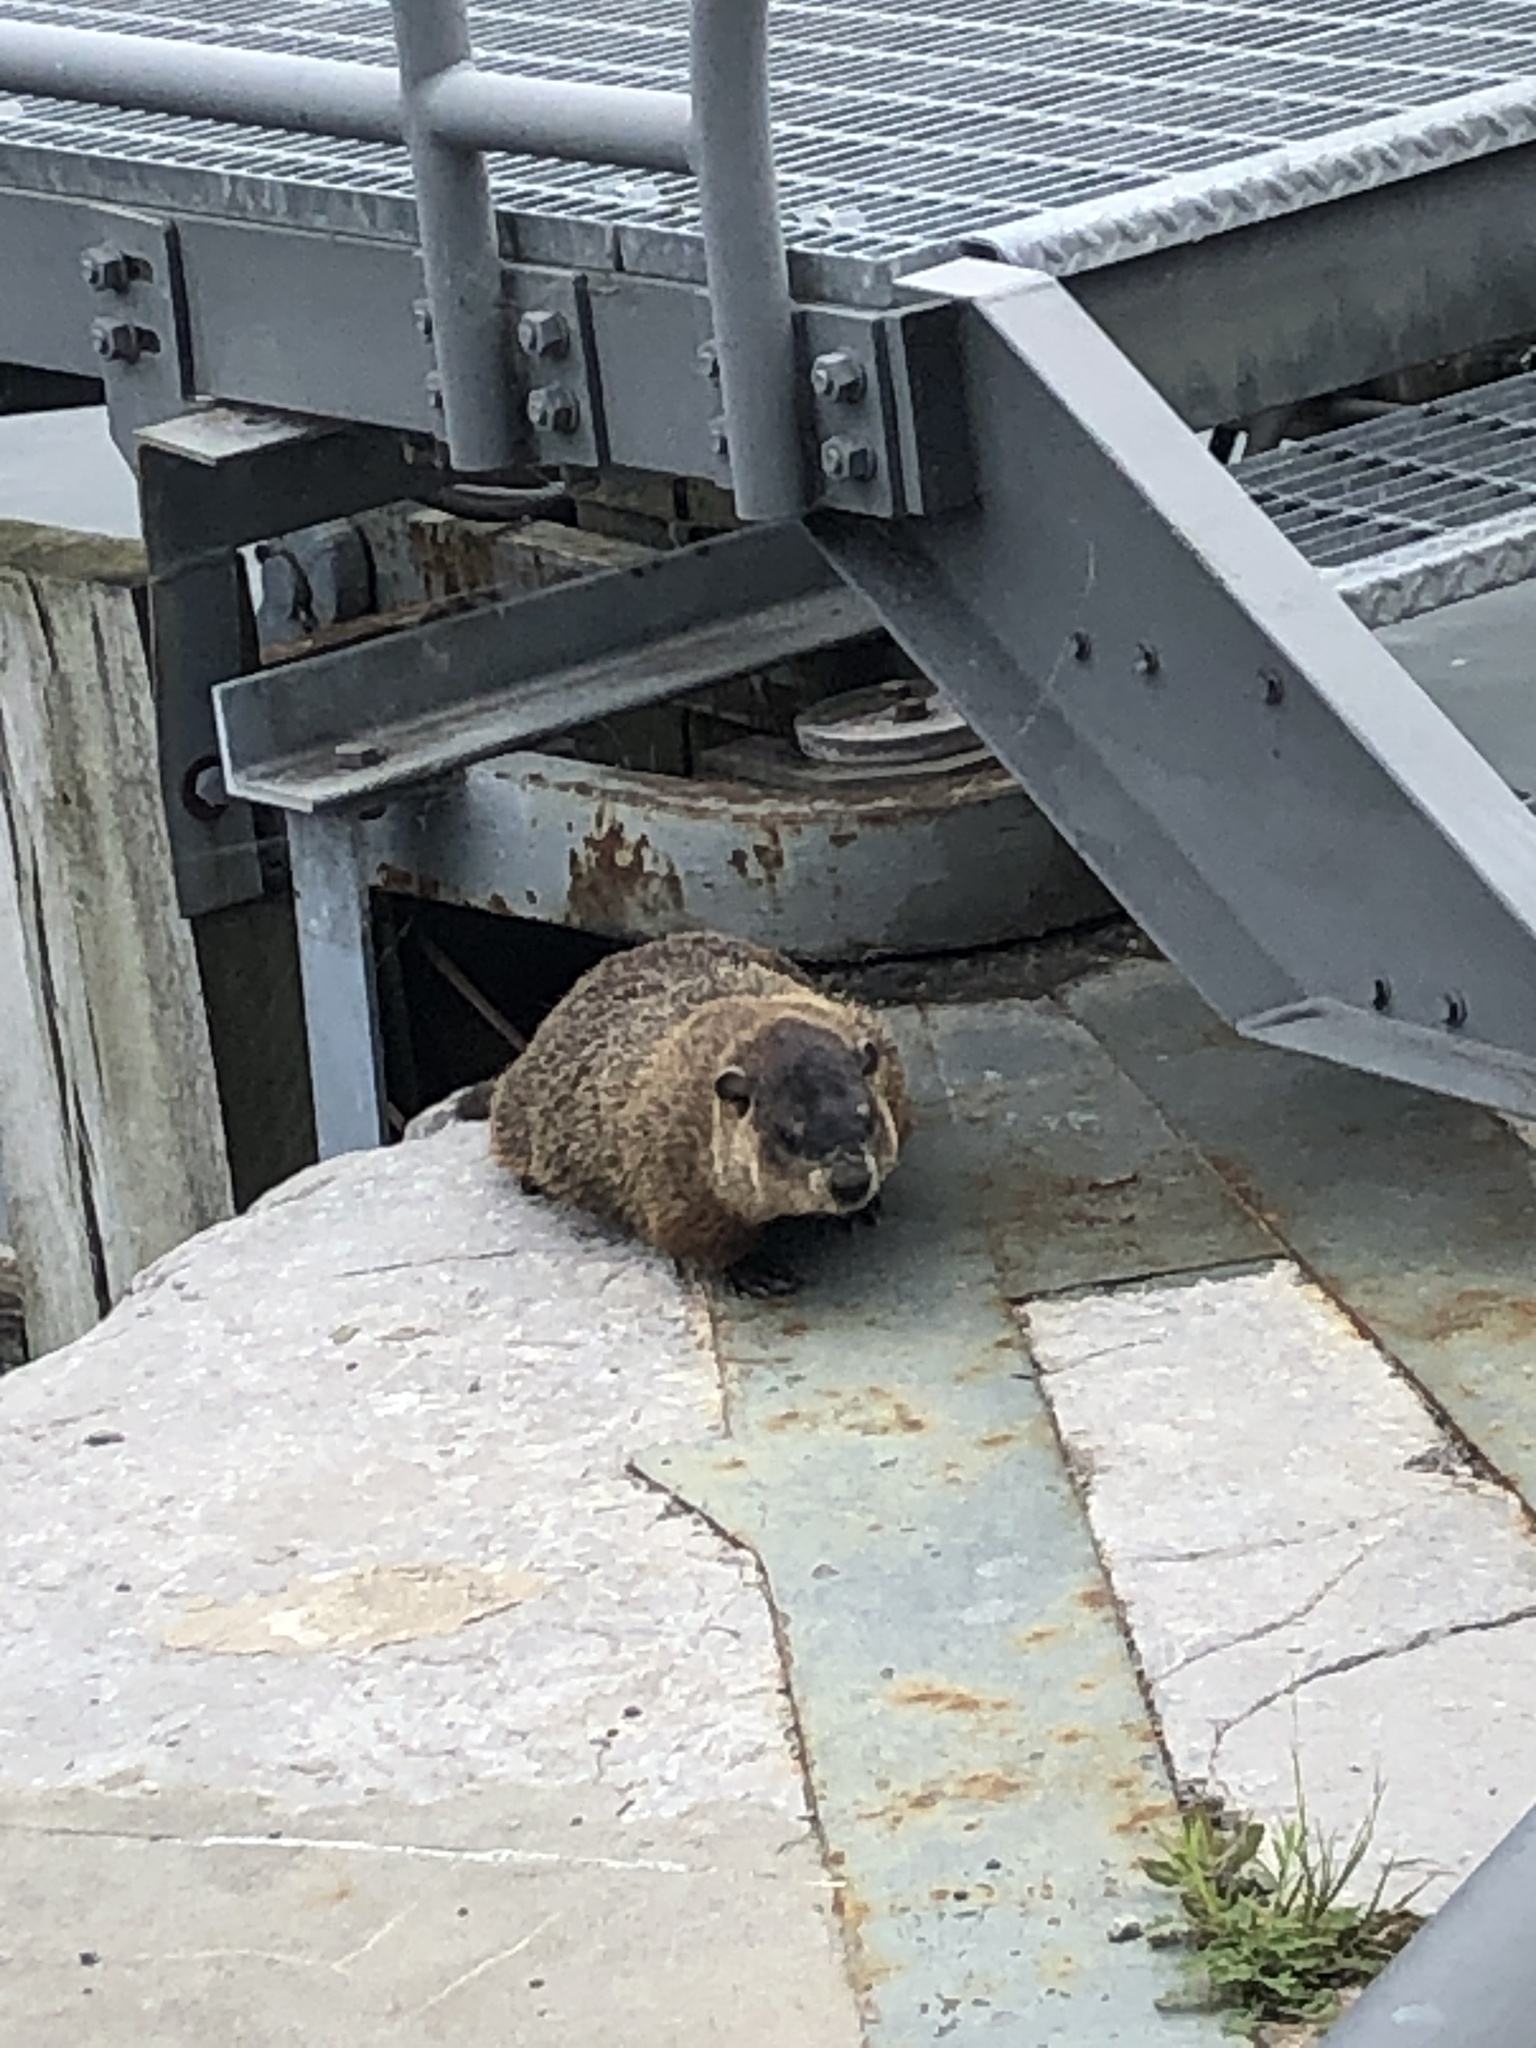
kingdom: Animalia
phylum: Chordata
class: Mammalia
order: Rodentia
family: Sciuridae
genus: Marmota
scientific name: Marmota monax
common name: Groundhog
